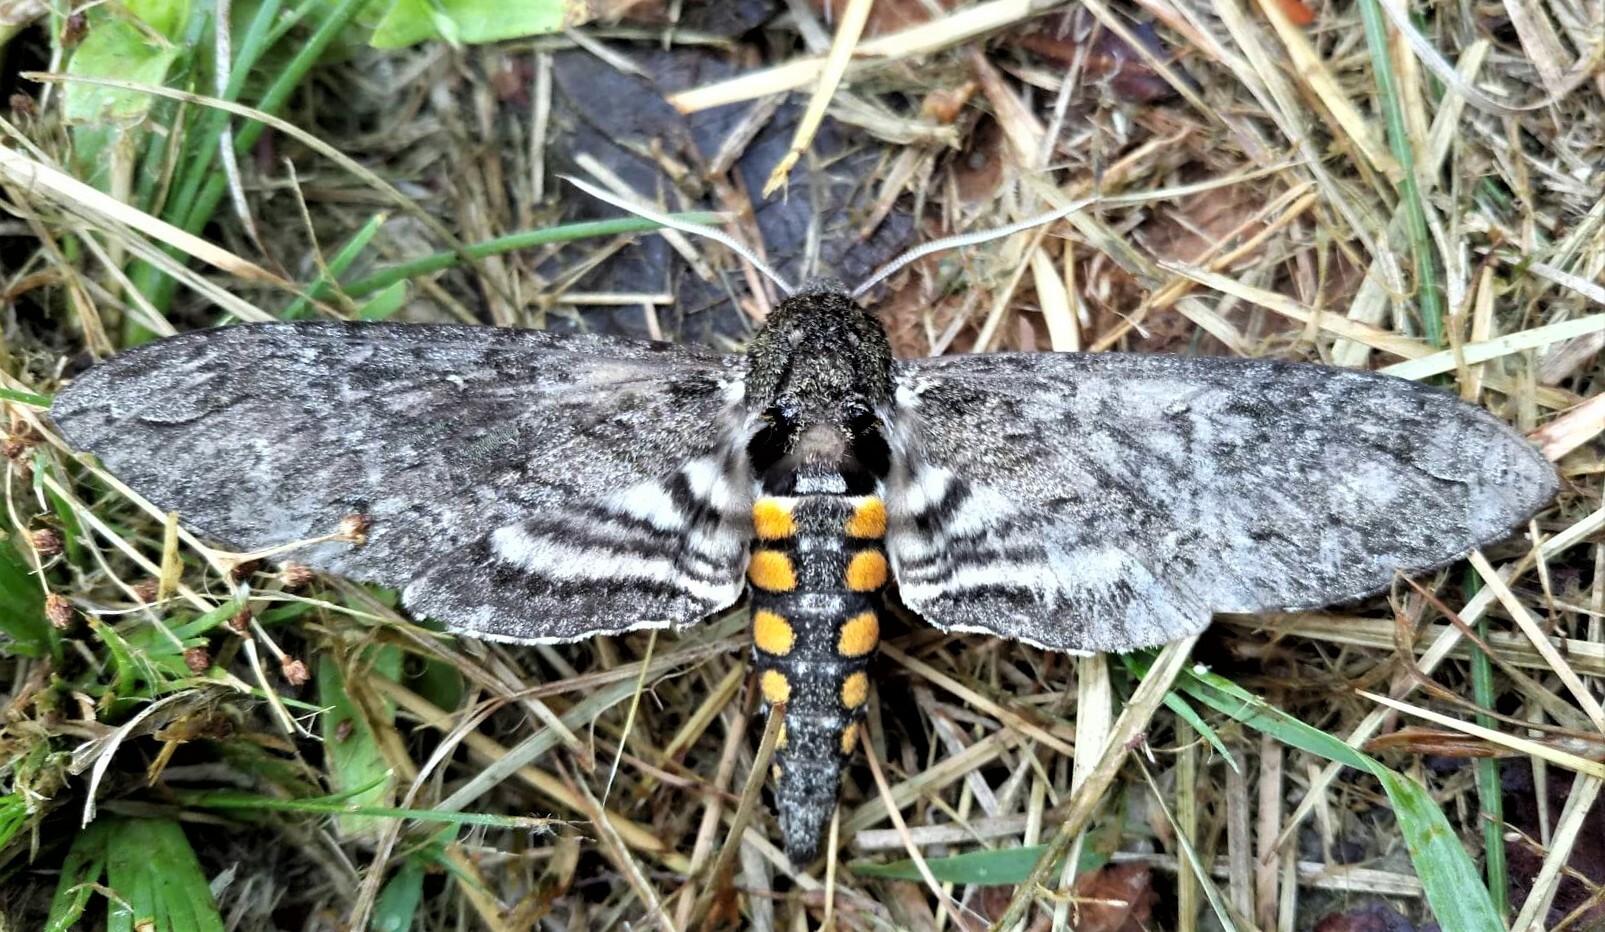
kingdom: Animalia
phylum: Arthropoda
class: Insecta
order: Lepidoptera
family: Sphingidae
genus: Manduca
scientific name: Manduca afflicta
